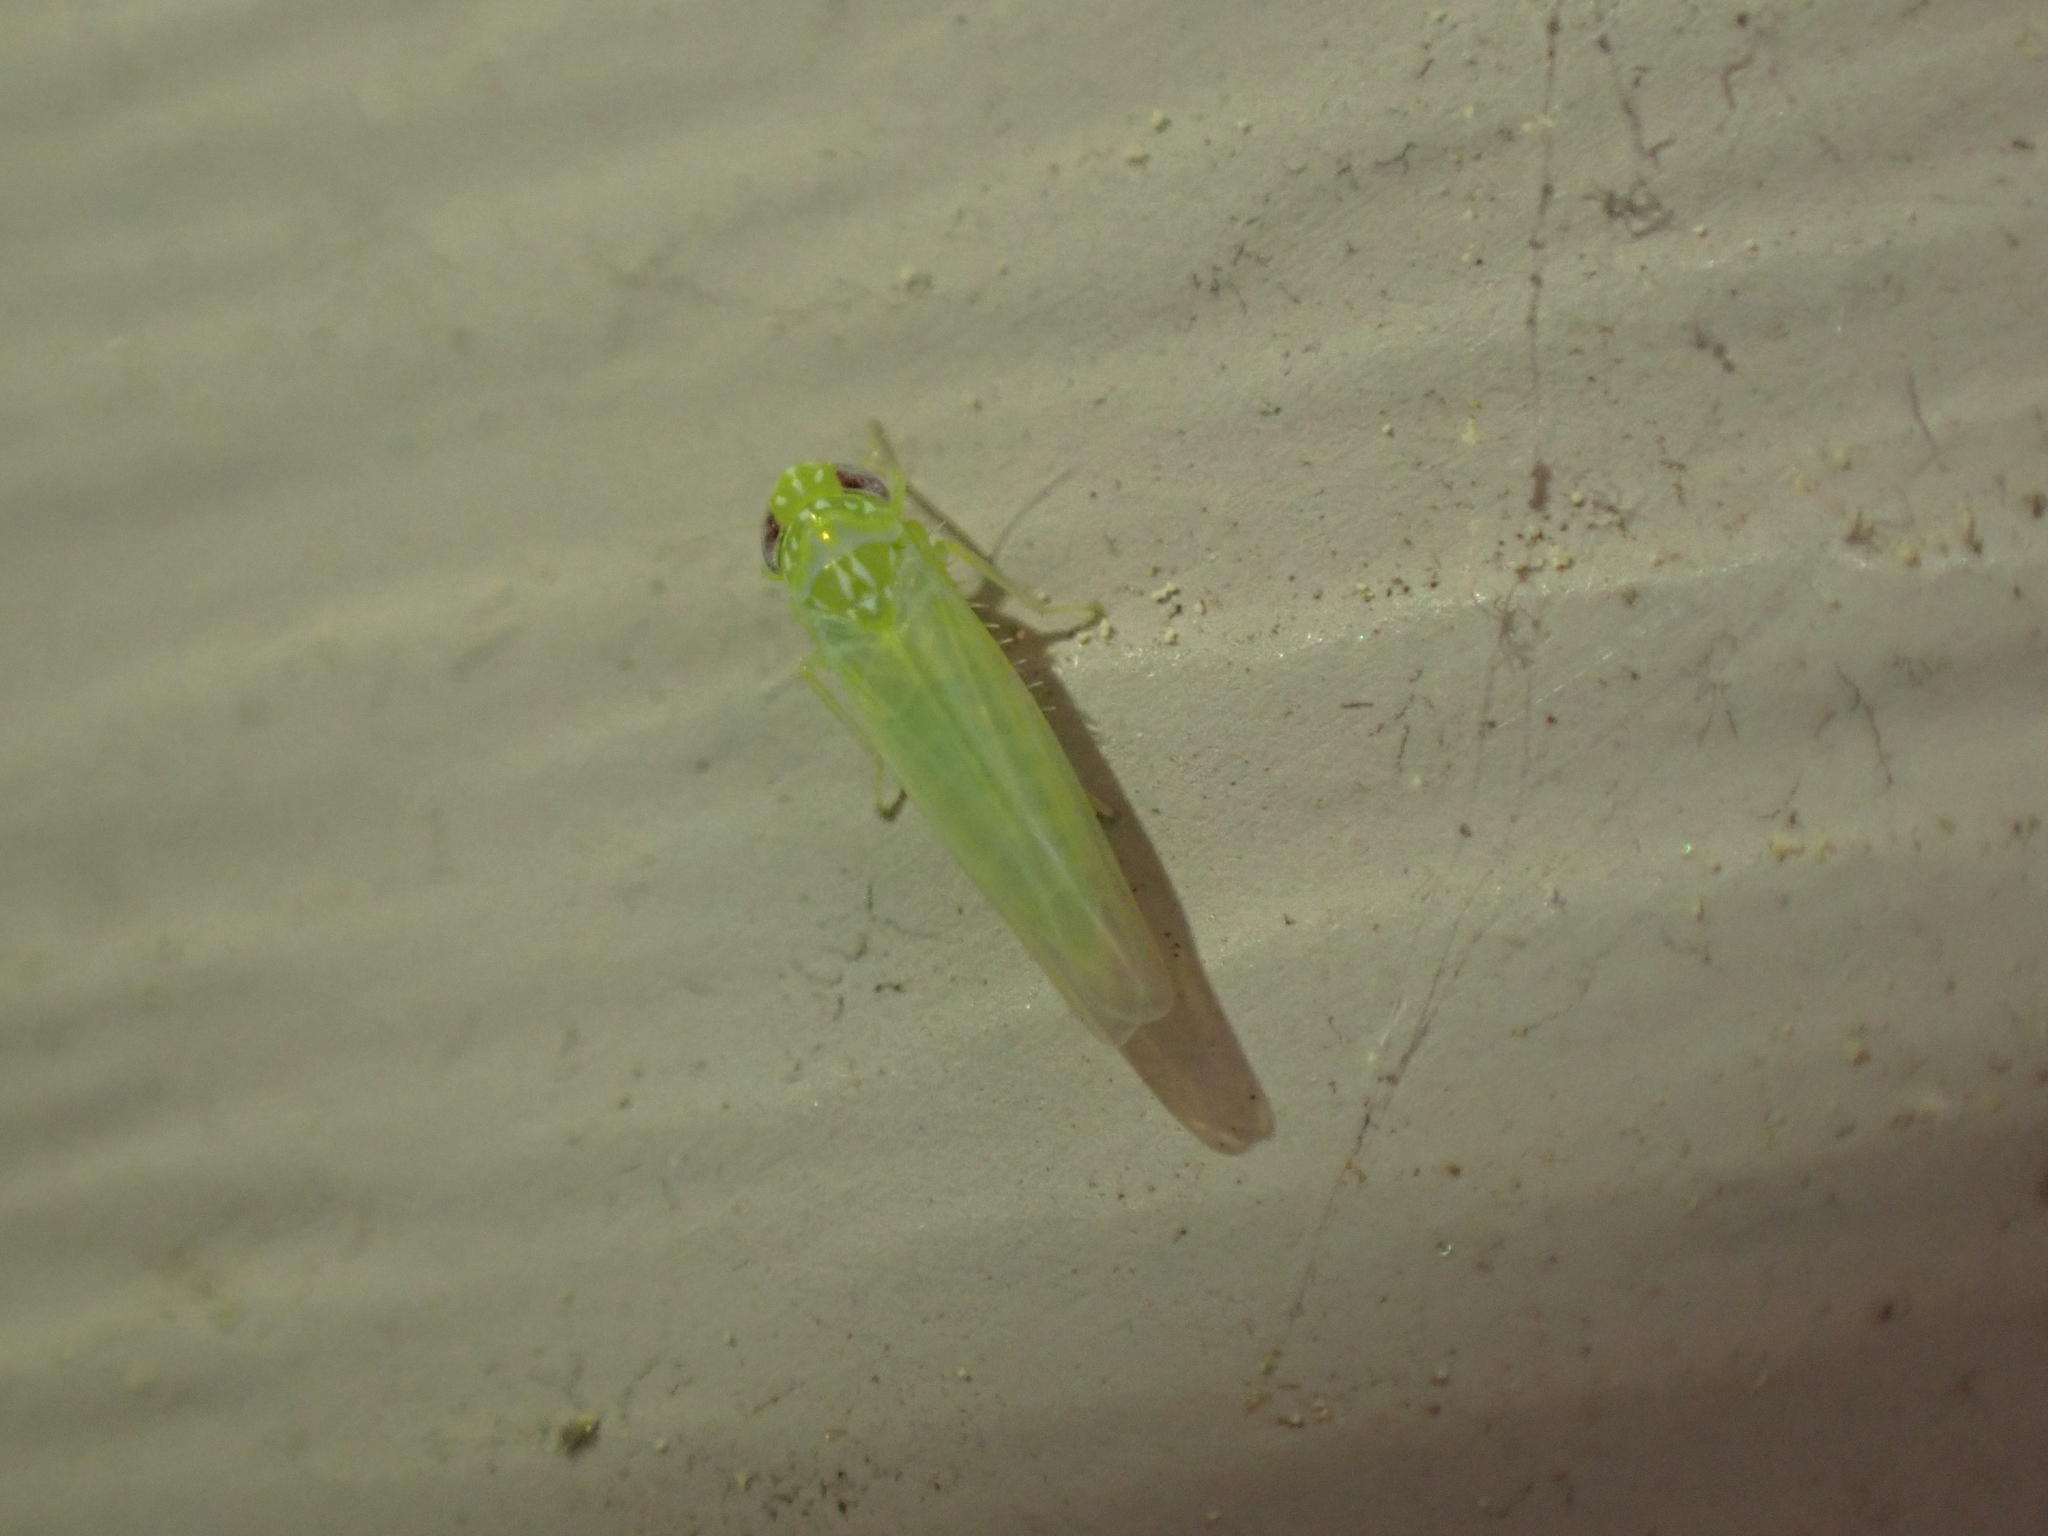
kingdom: Animalia
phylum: Arthropoda
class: Insecta
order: Hemiptera
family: Cicadellidae
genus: Empoasca
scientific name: Empoasca fabae
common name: Potato leafhopper
